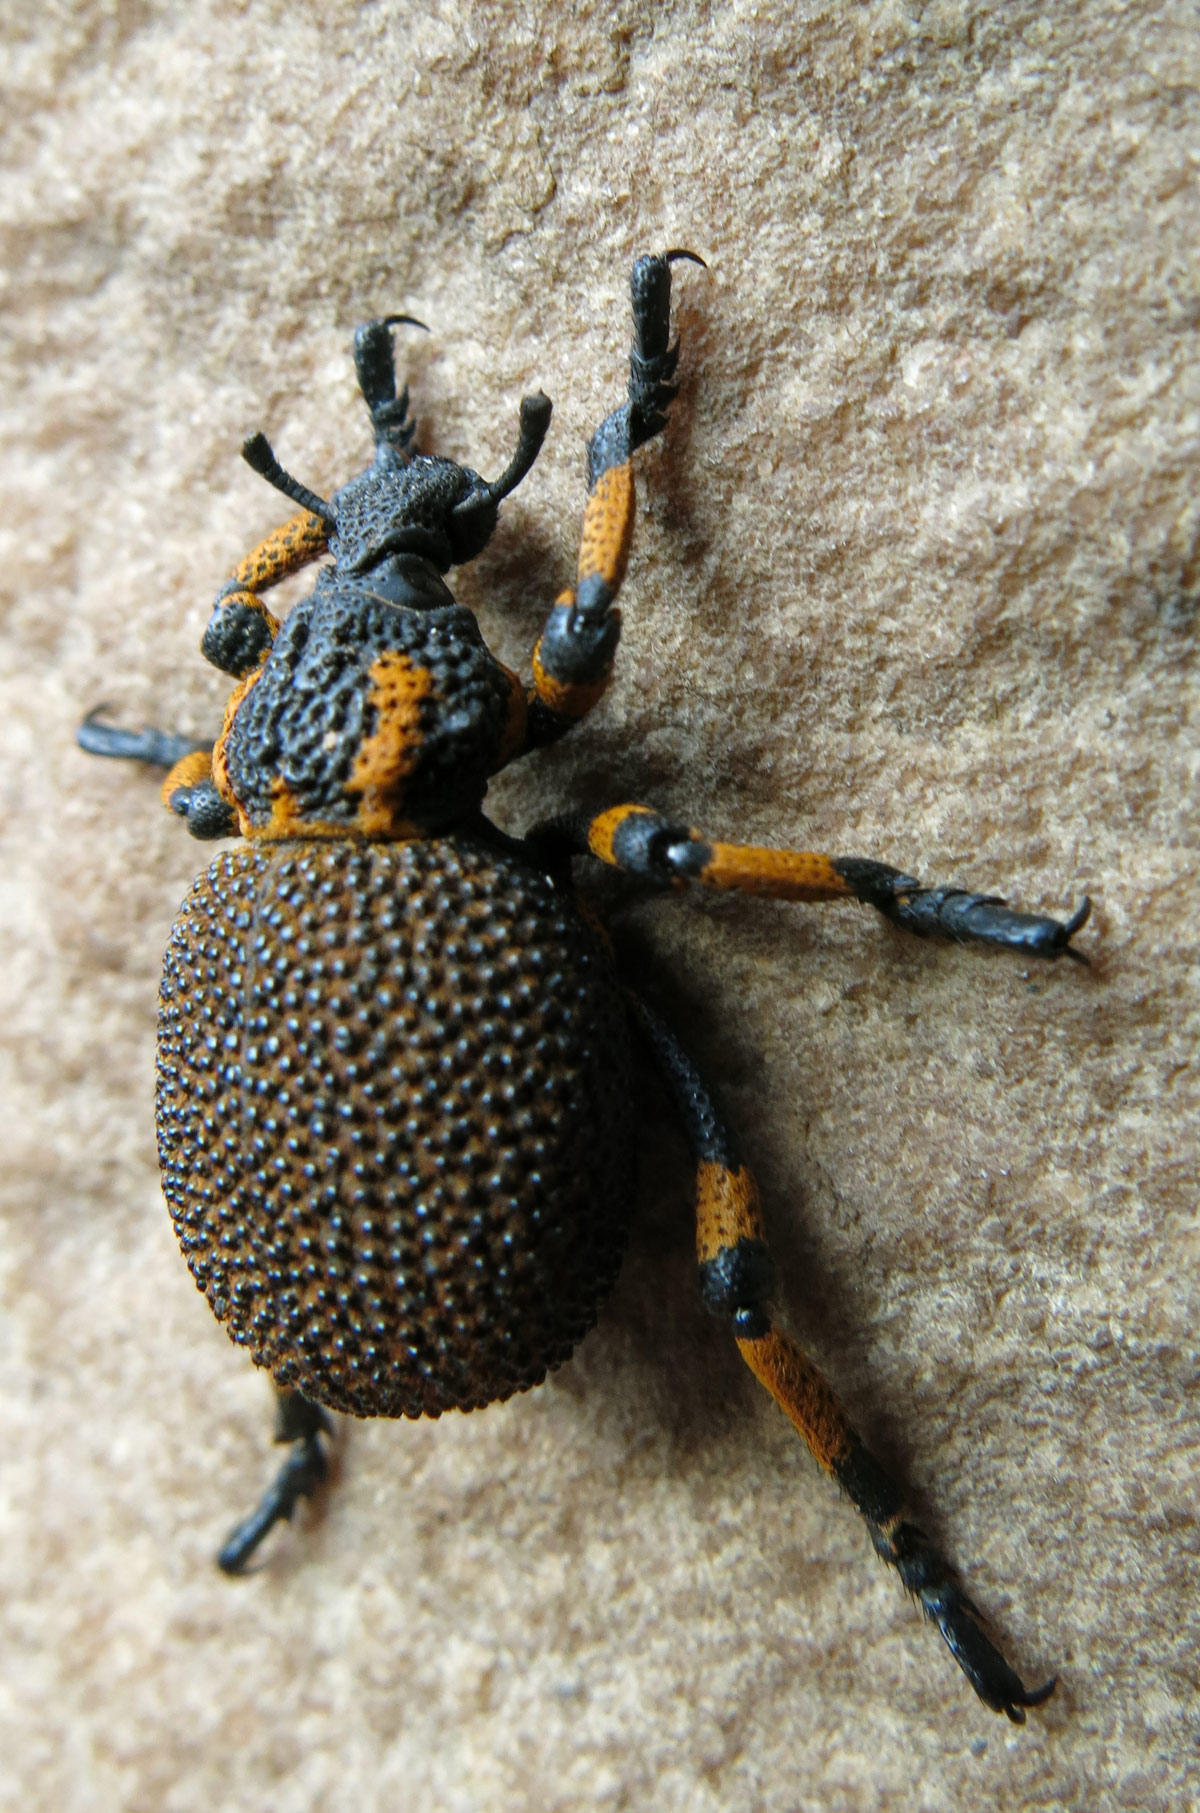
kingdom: Animalia
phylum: Arthropoda
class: Insecta
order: Coleoptera
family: Brachyceridae
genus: Brachycerus
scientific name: Brachycerus congestus
